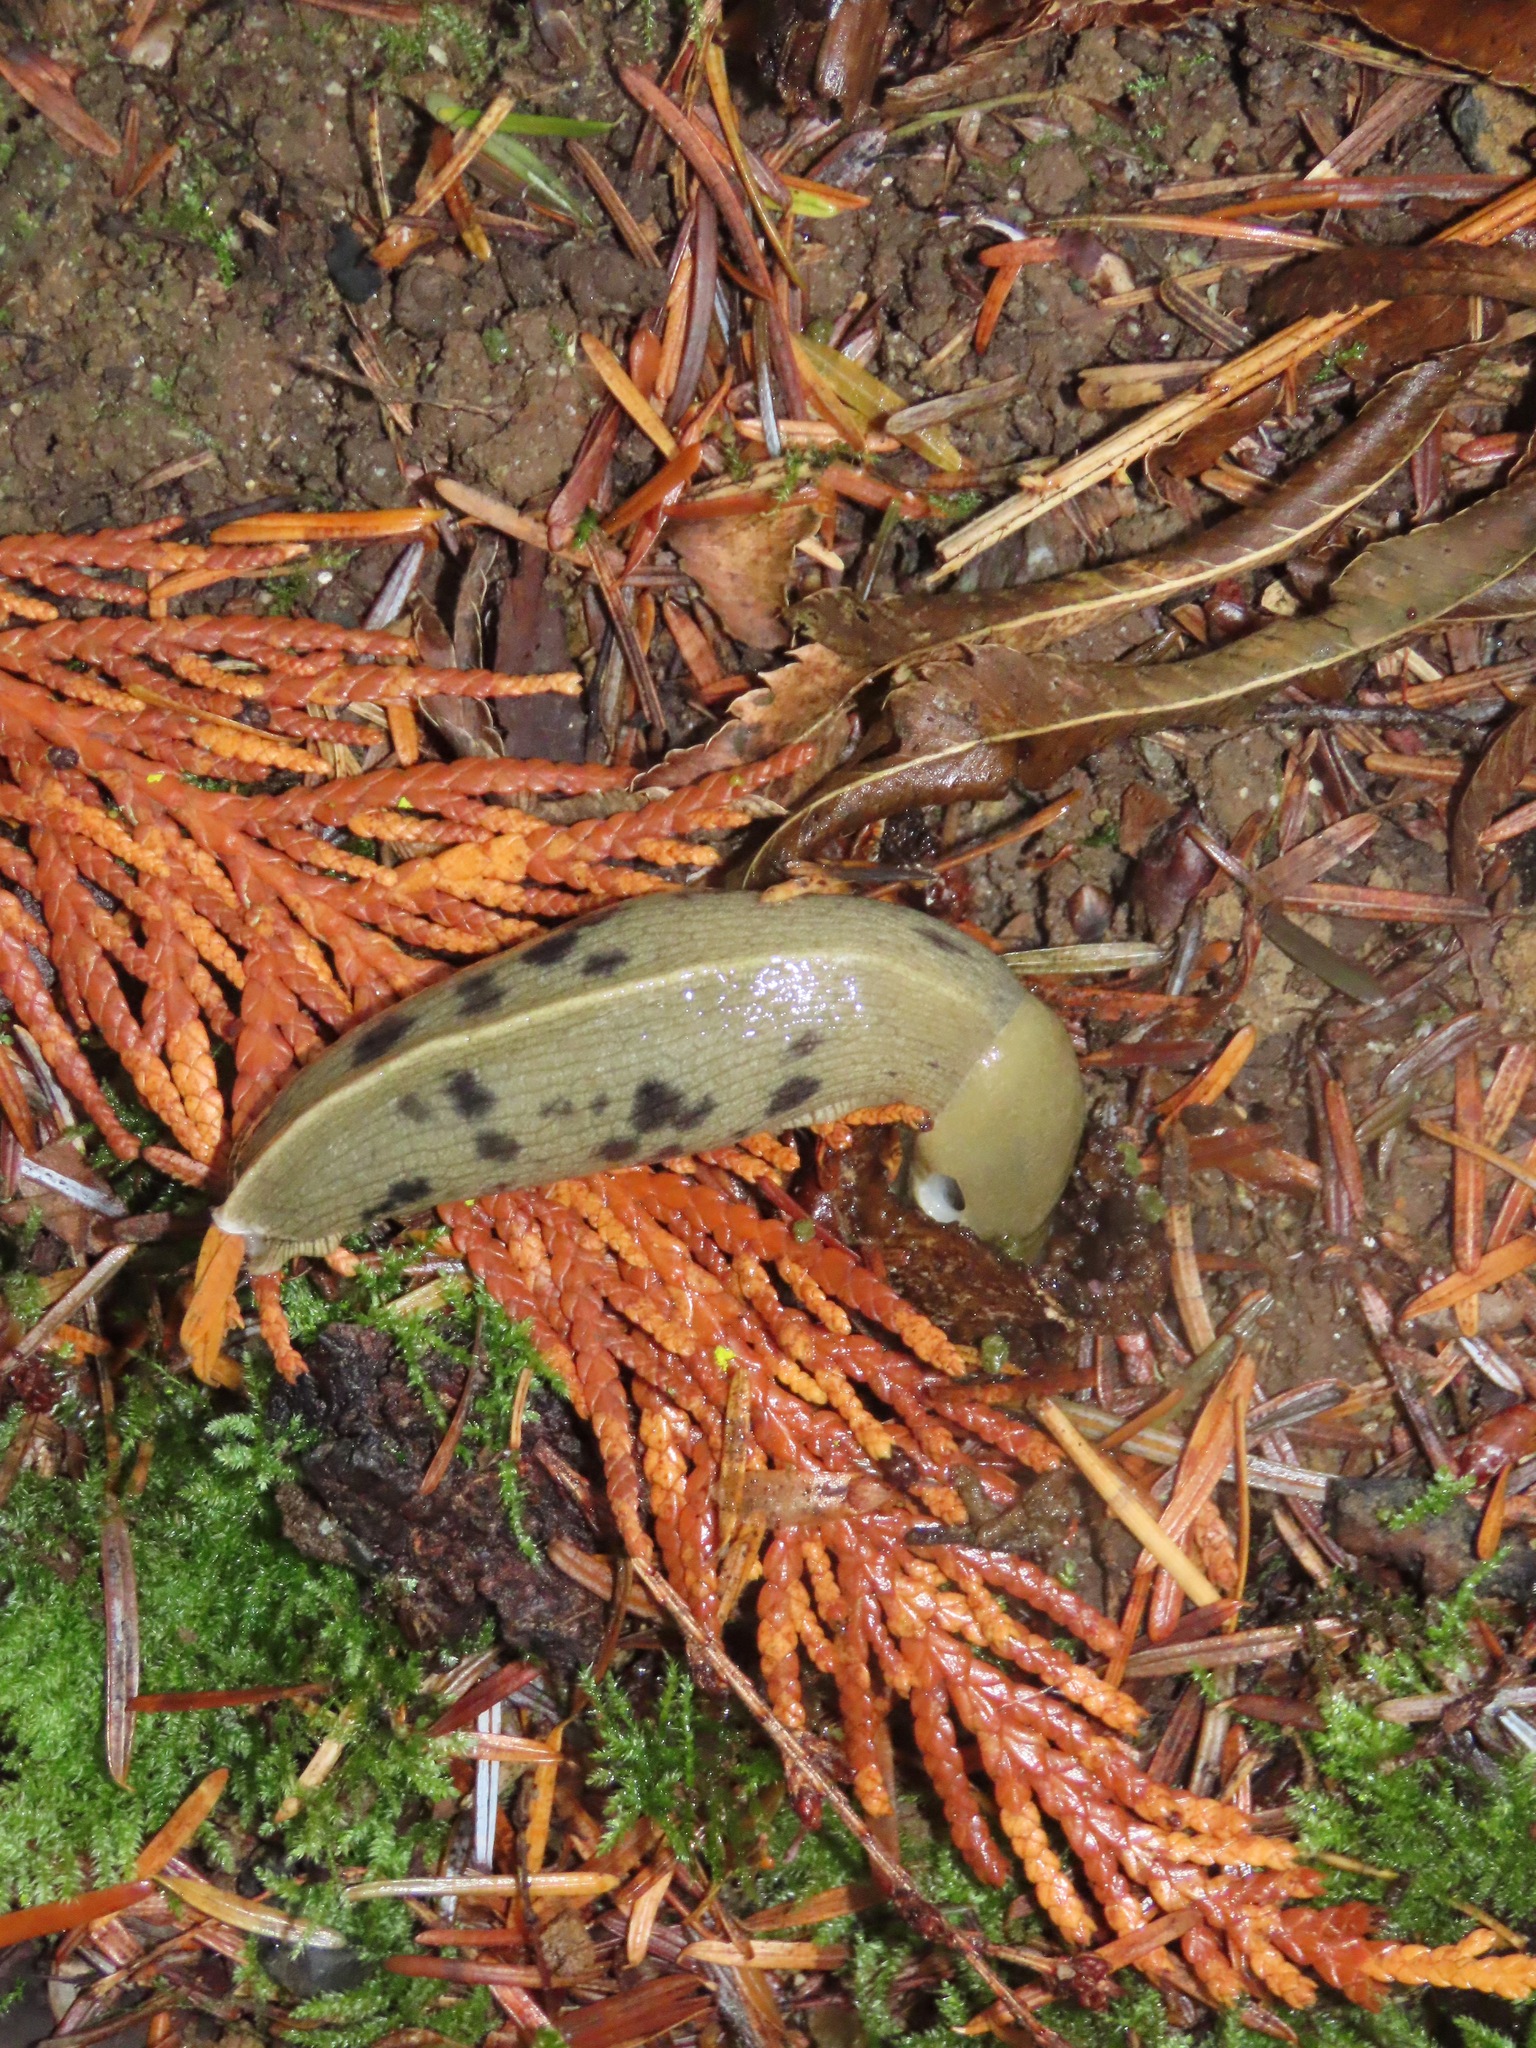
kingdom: Animalia
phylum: Mollusca
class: Gastropoda
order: Stylommatophora
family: Ariolimacidae
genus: Ariolimax
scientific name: Ariolimax columbianus
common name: Pacific banana slug
